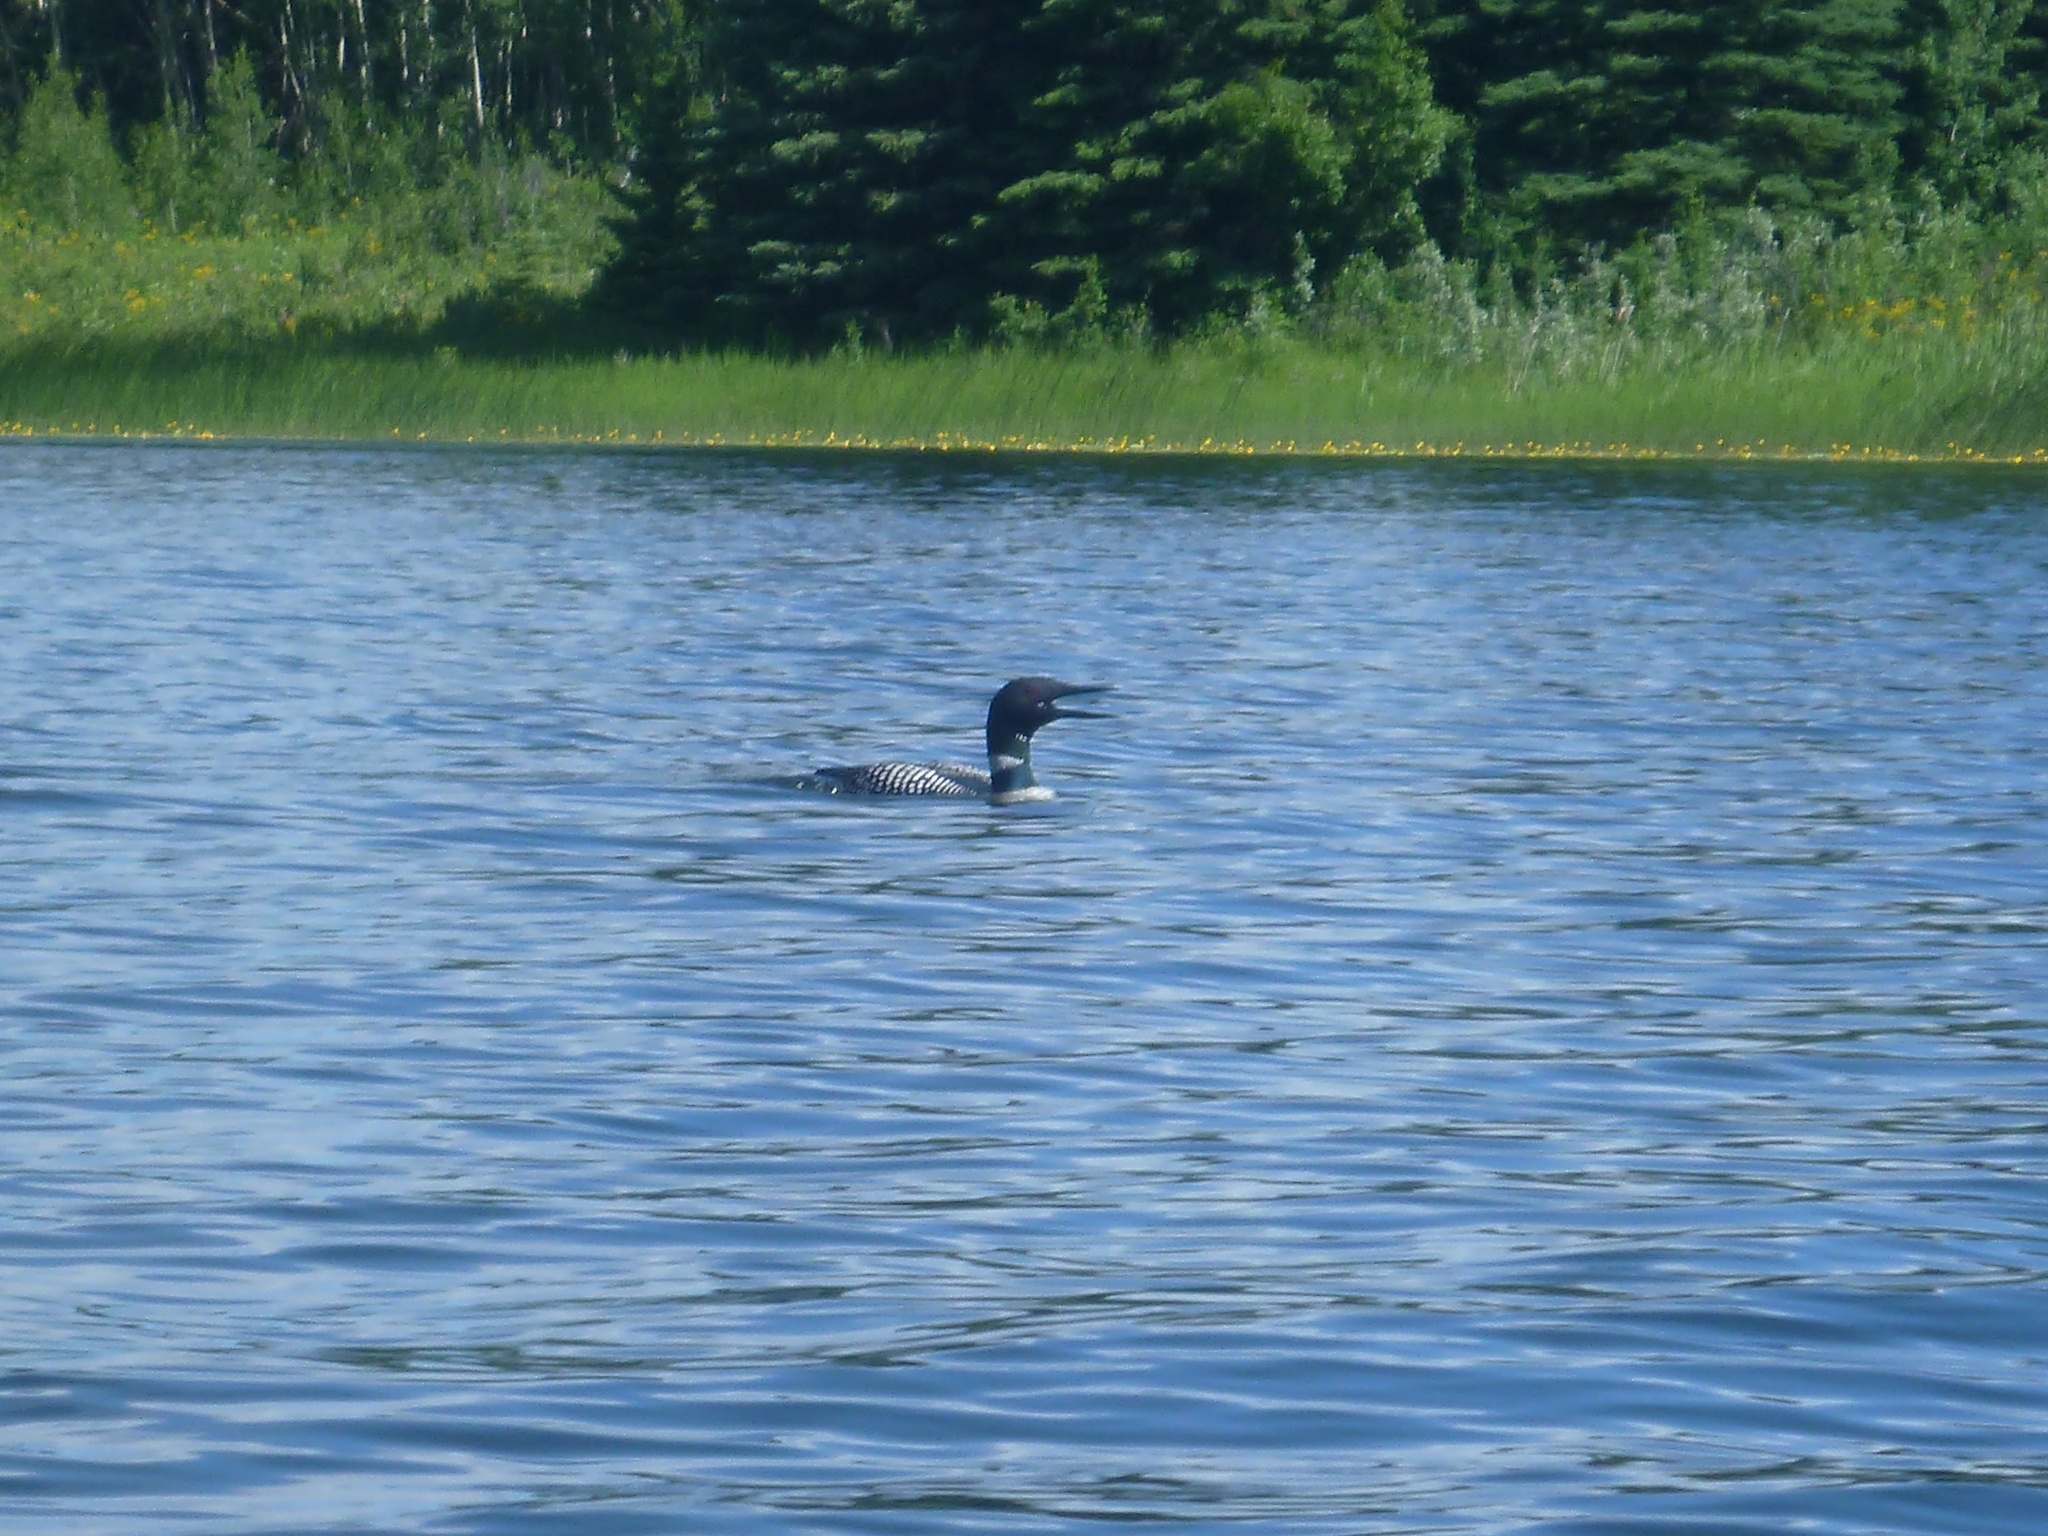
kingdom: Animalia
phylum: Chordata
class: Aves
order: Gaviiformes
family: Gaviidae
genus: Gavia
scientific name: Gavia immer
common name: Common loon
